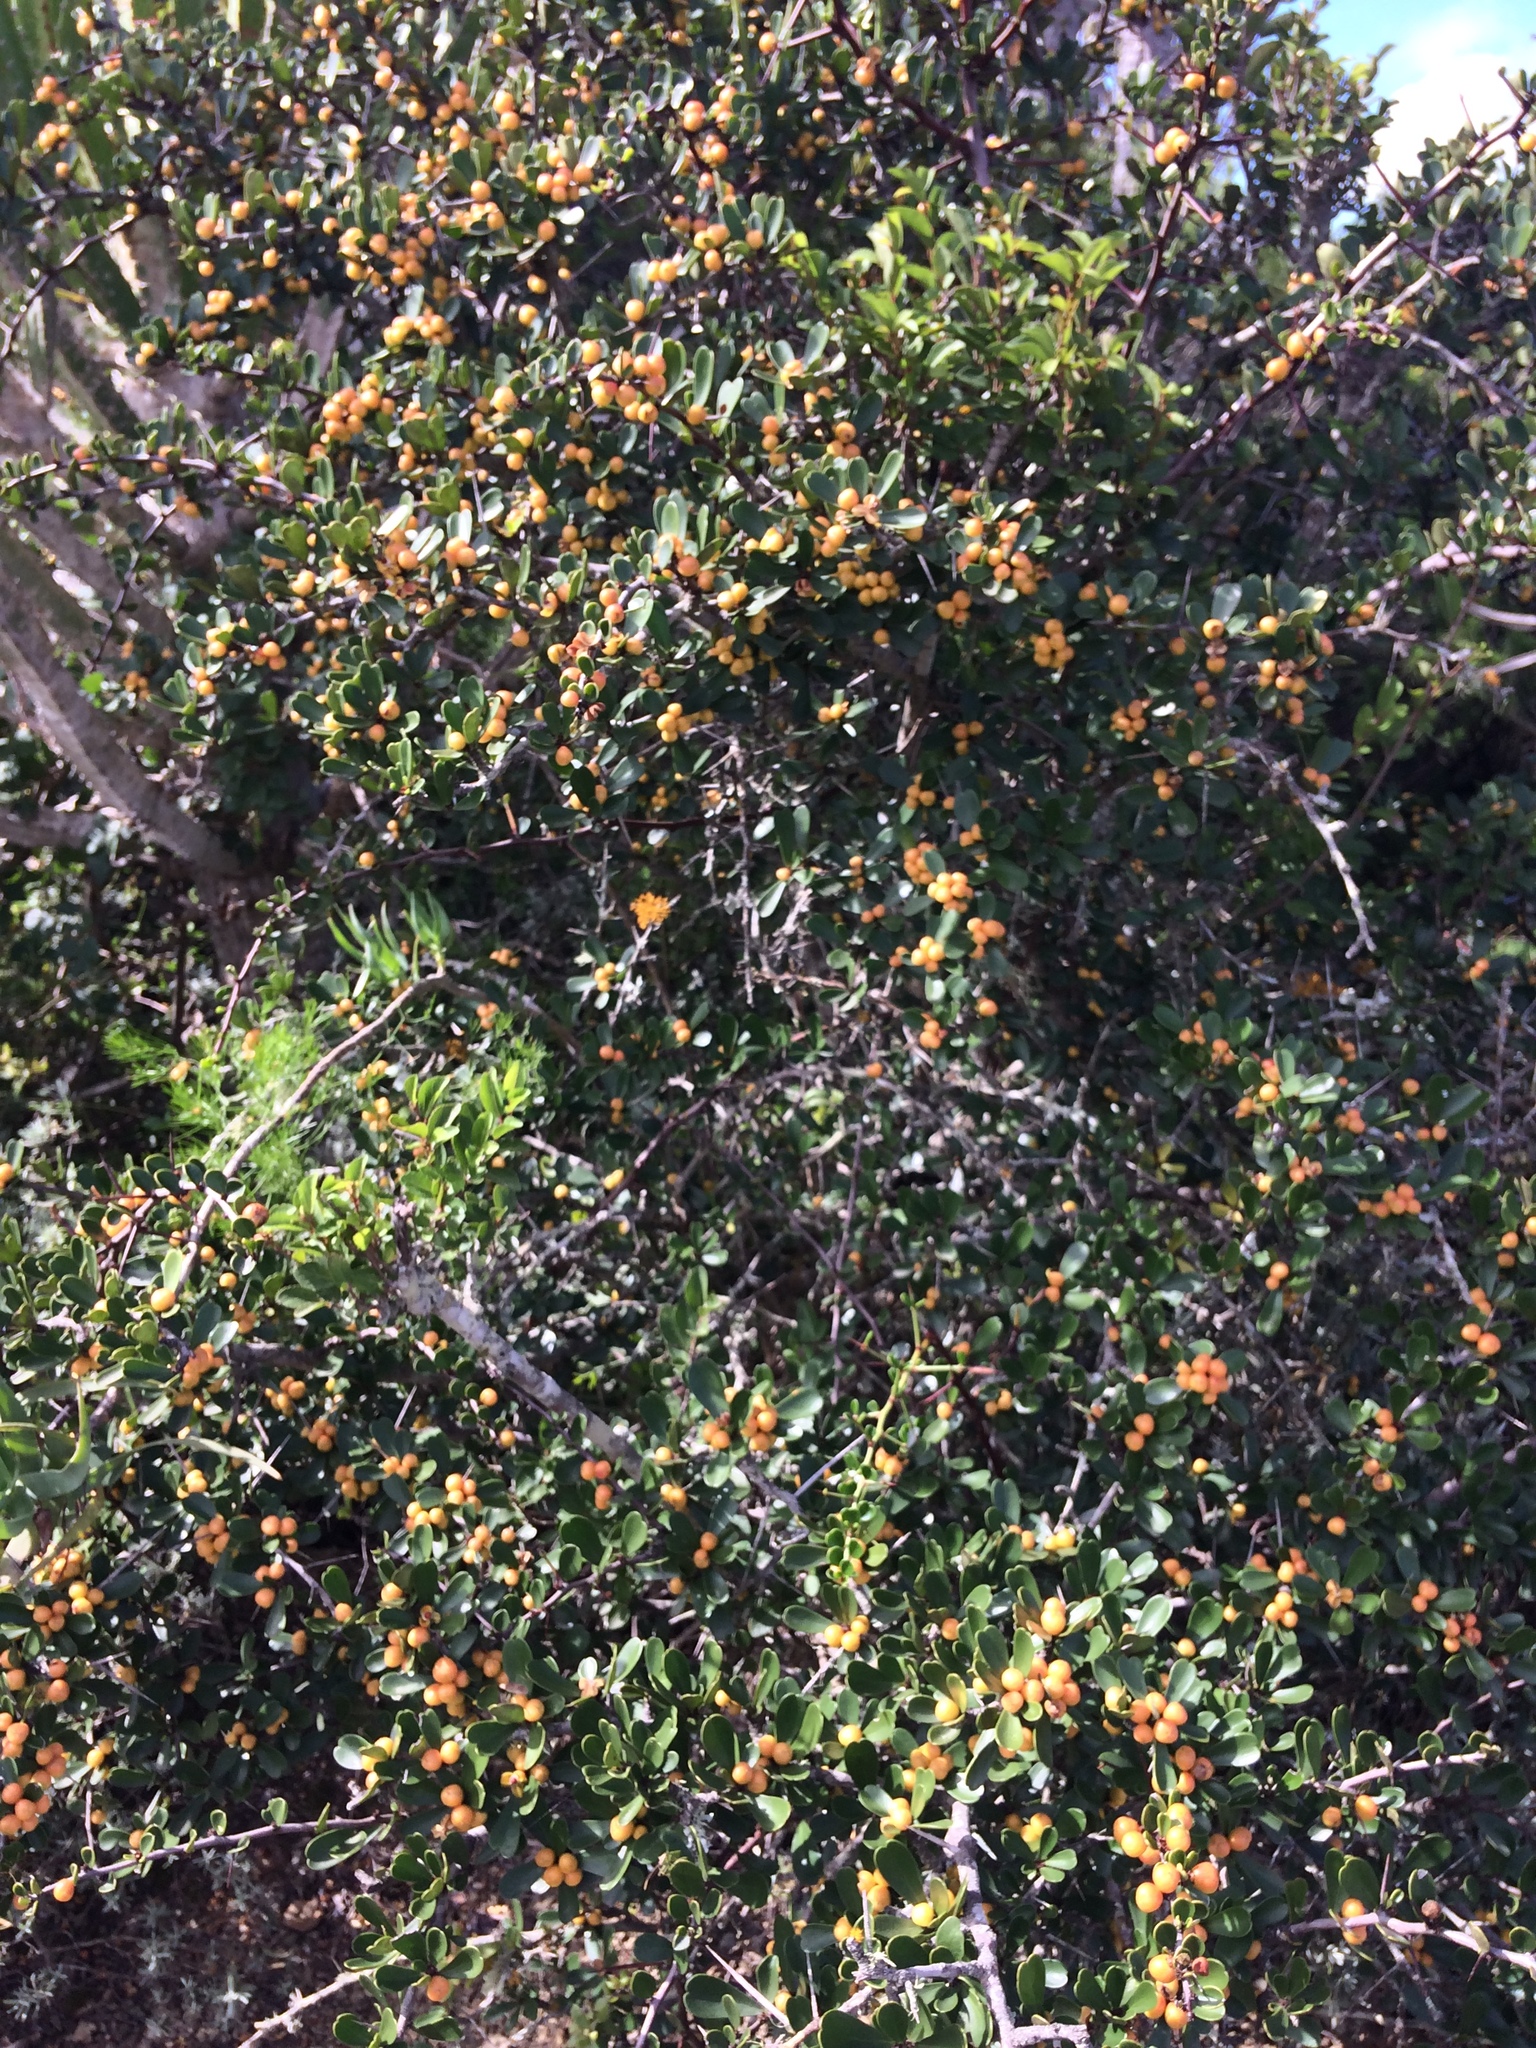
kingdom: Plantae
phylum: Tracheophyta
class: Magnoliopsida
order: Celastrales
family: Celastraceae
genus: Gymnosporia
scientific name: Gymnosporia capitata
